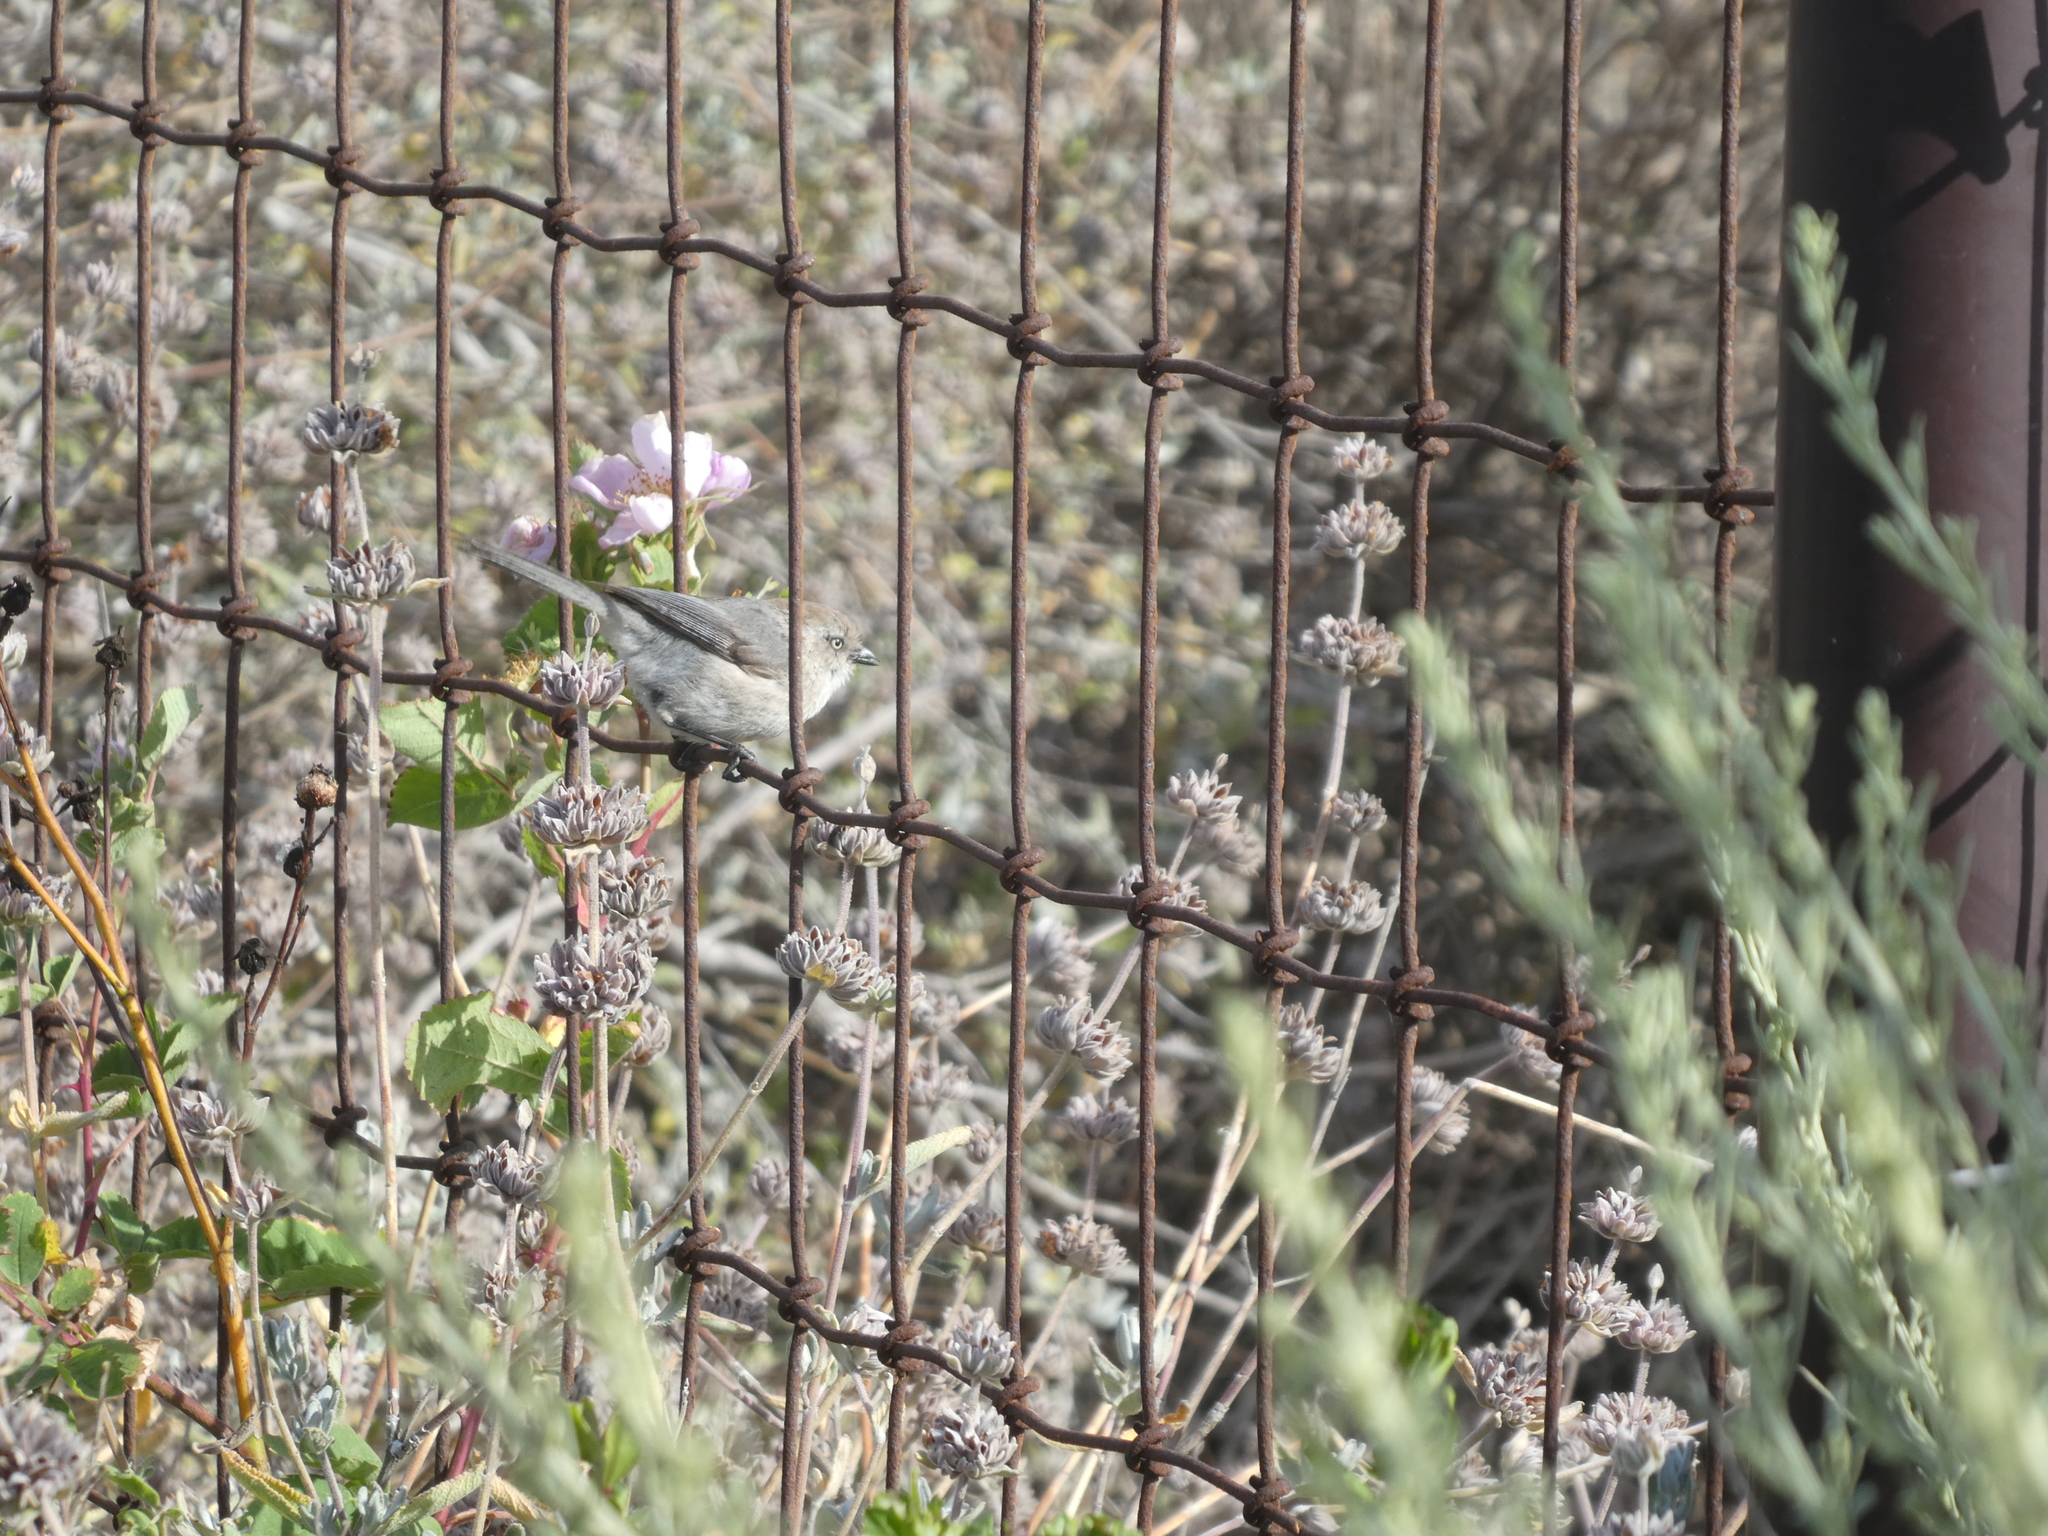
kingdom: Animalia
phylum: Chordata
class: Aves
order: Passeriformes
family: Aegithalidae
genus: Psaltriparus
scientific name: Psaltriparus minimus
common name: American bushtit
